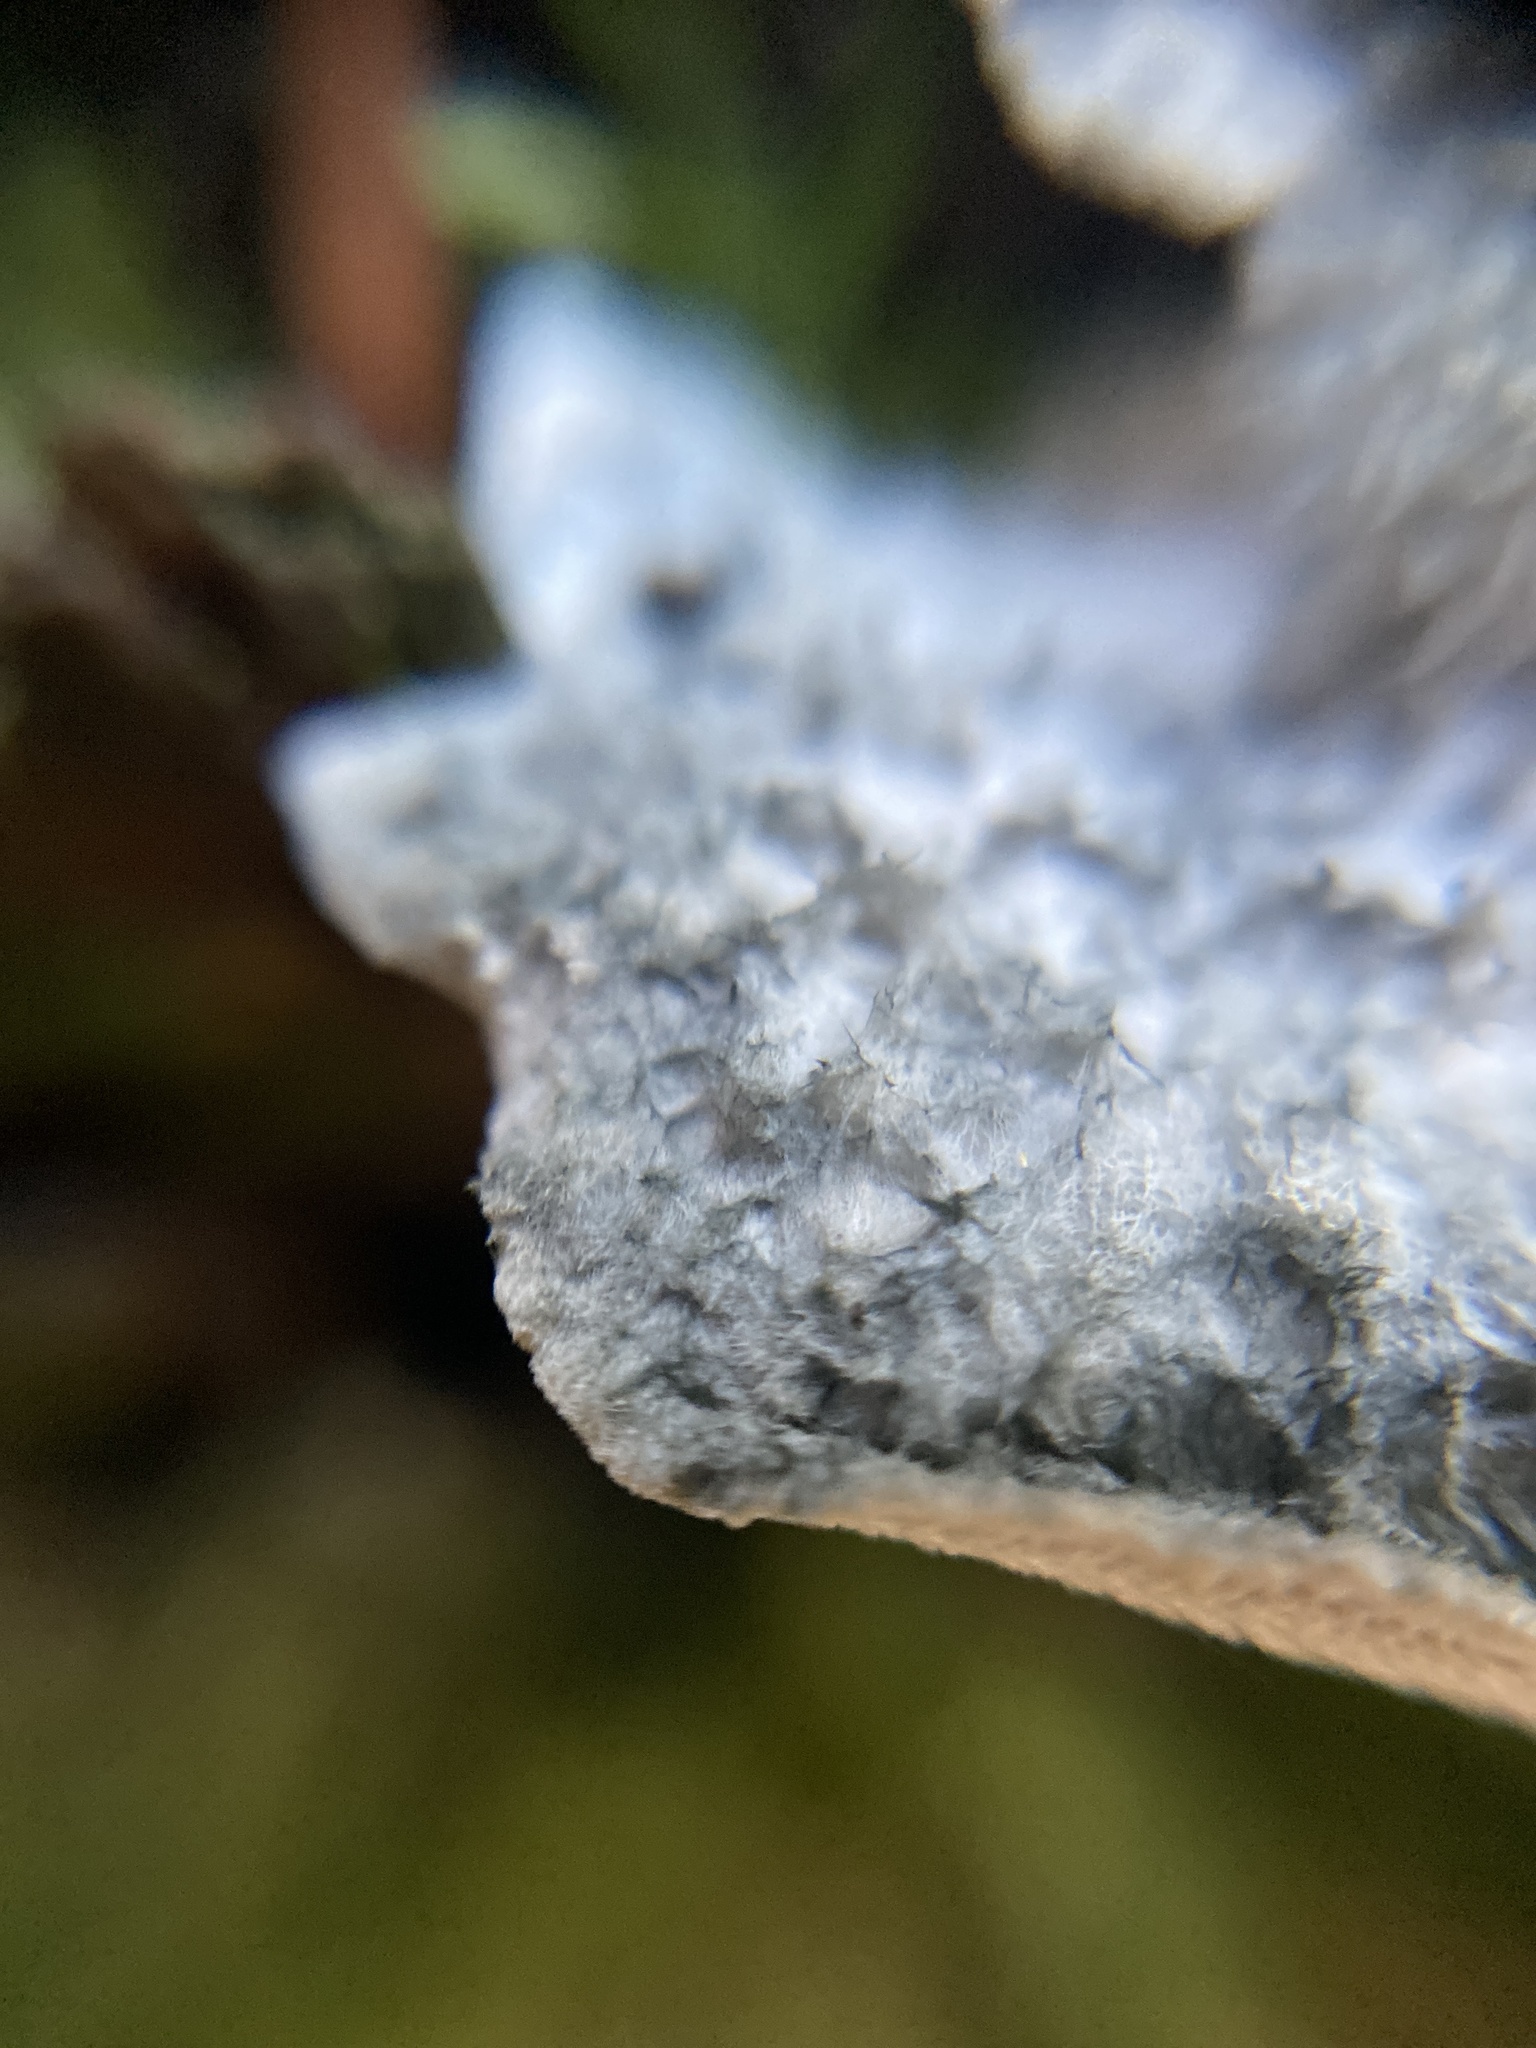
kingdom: Fungi
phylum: Basidiomycota
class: Agaricomycetes
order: Polyporales
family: Polyporaceae
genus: Cyanosporus
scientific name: Cyanosporus caesius
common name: Blue cheese polypore
